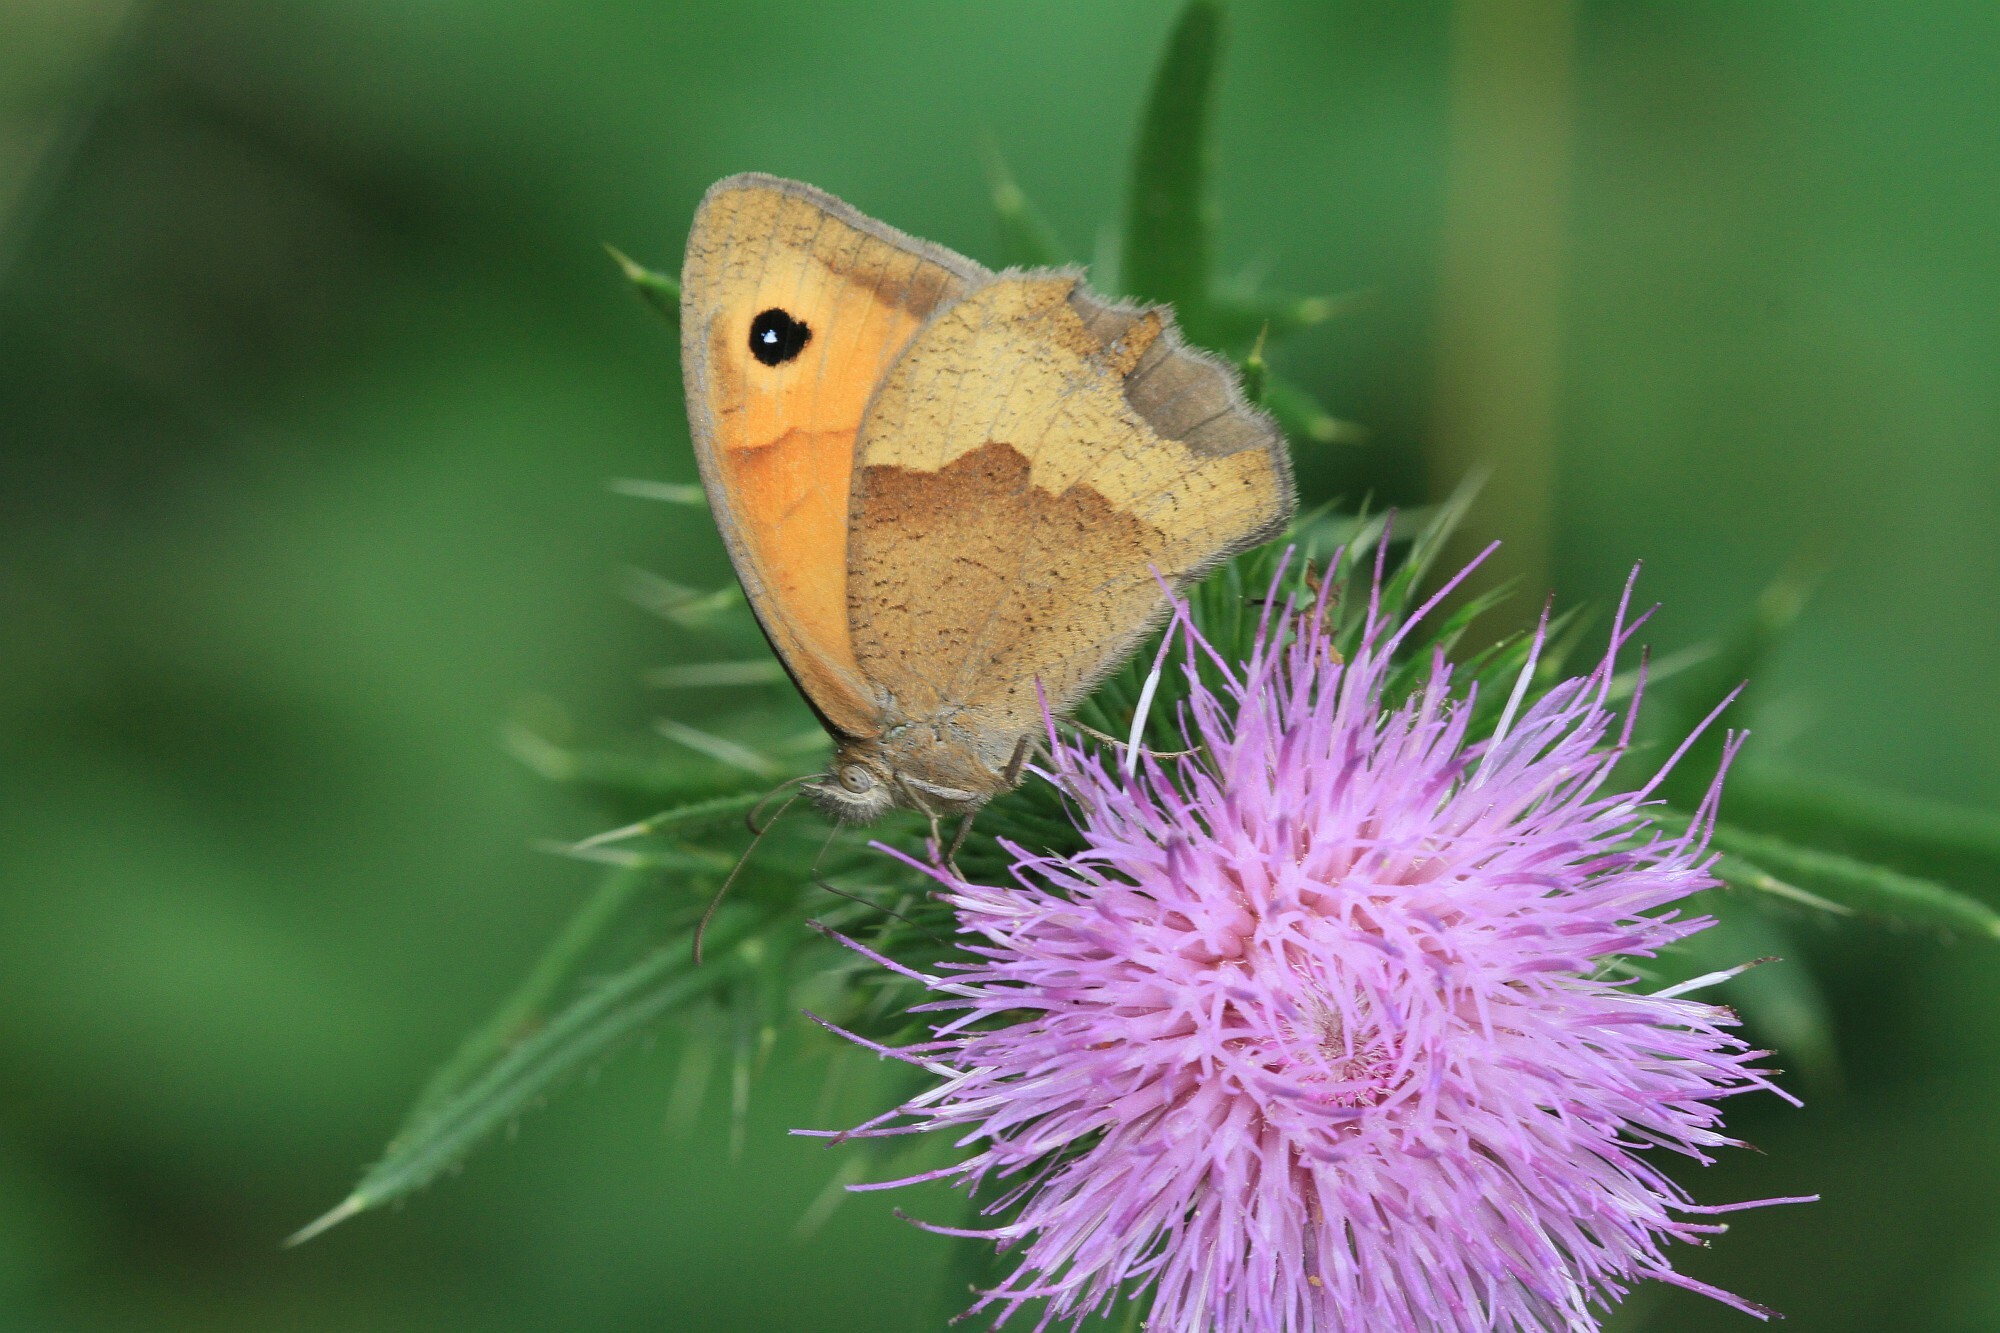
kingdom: Animalia
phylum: Arthropoda
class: Insecta
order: Lepidoptera
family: Nymphalidae
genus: Maniola
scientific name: Maniola jurtina
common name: Meadow brown
